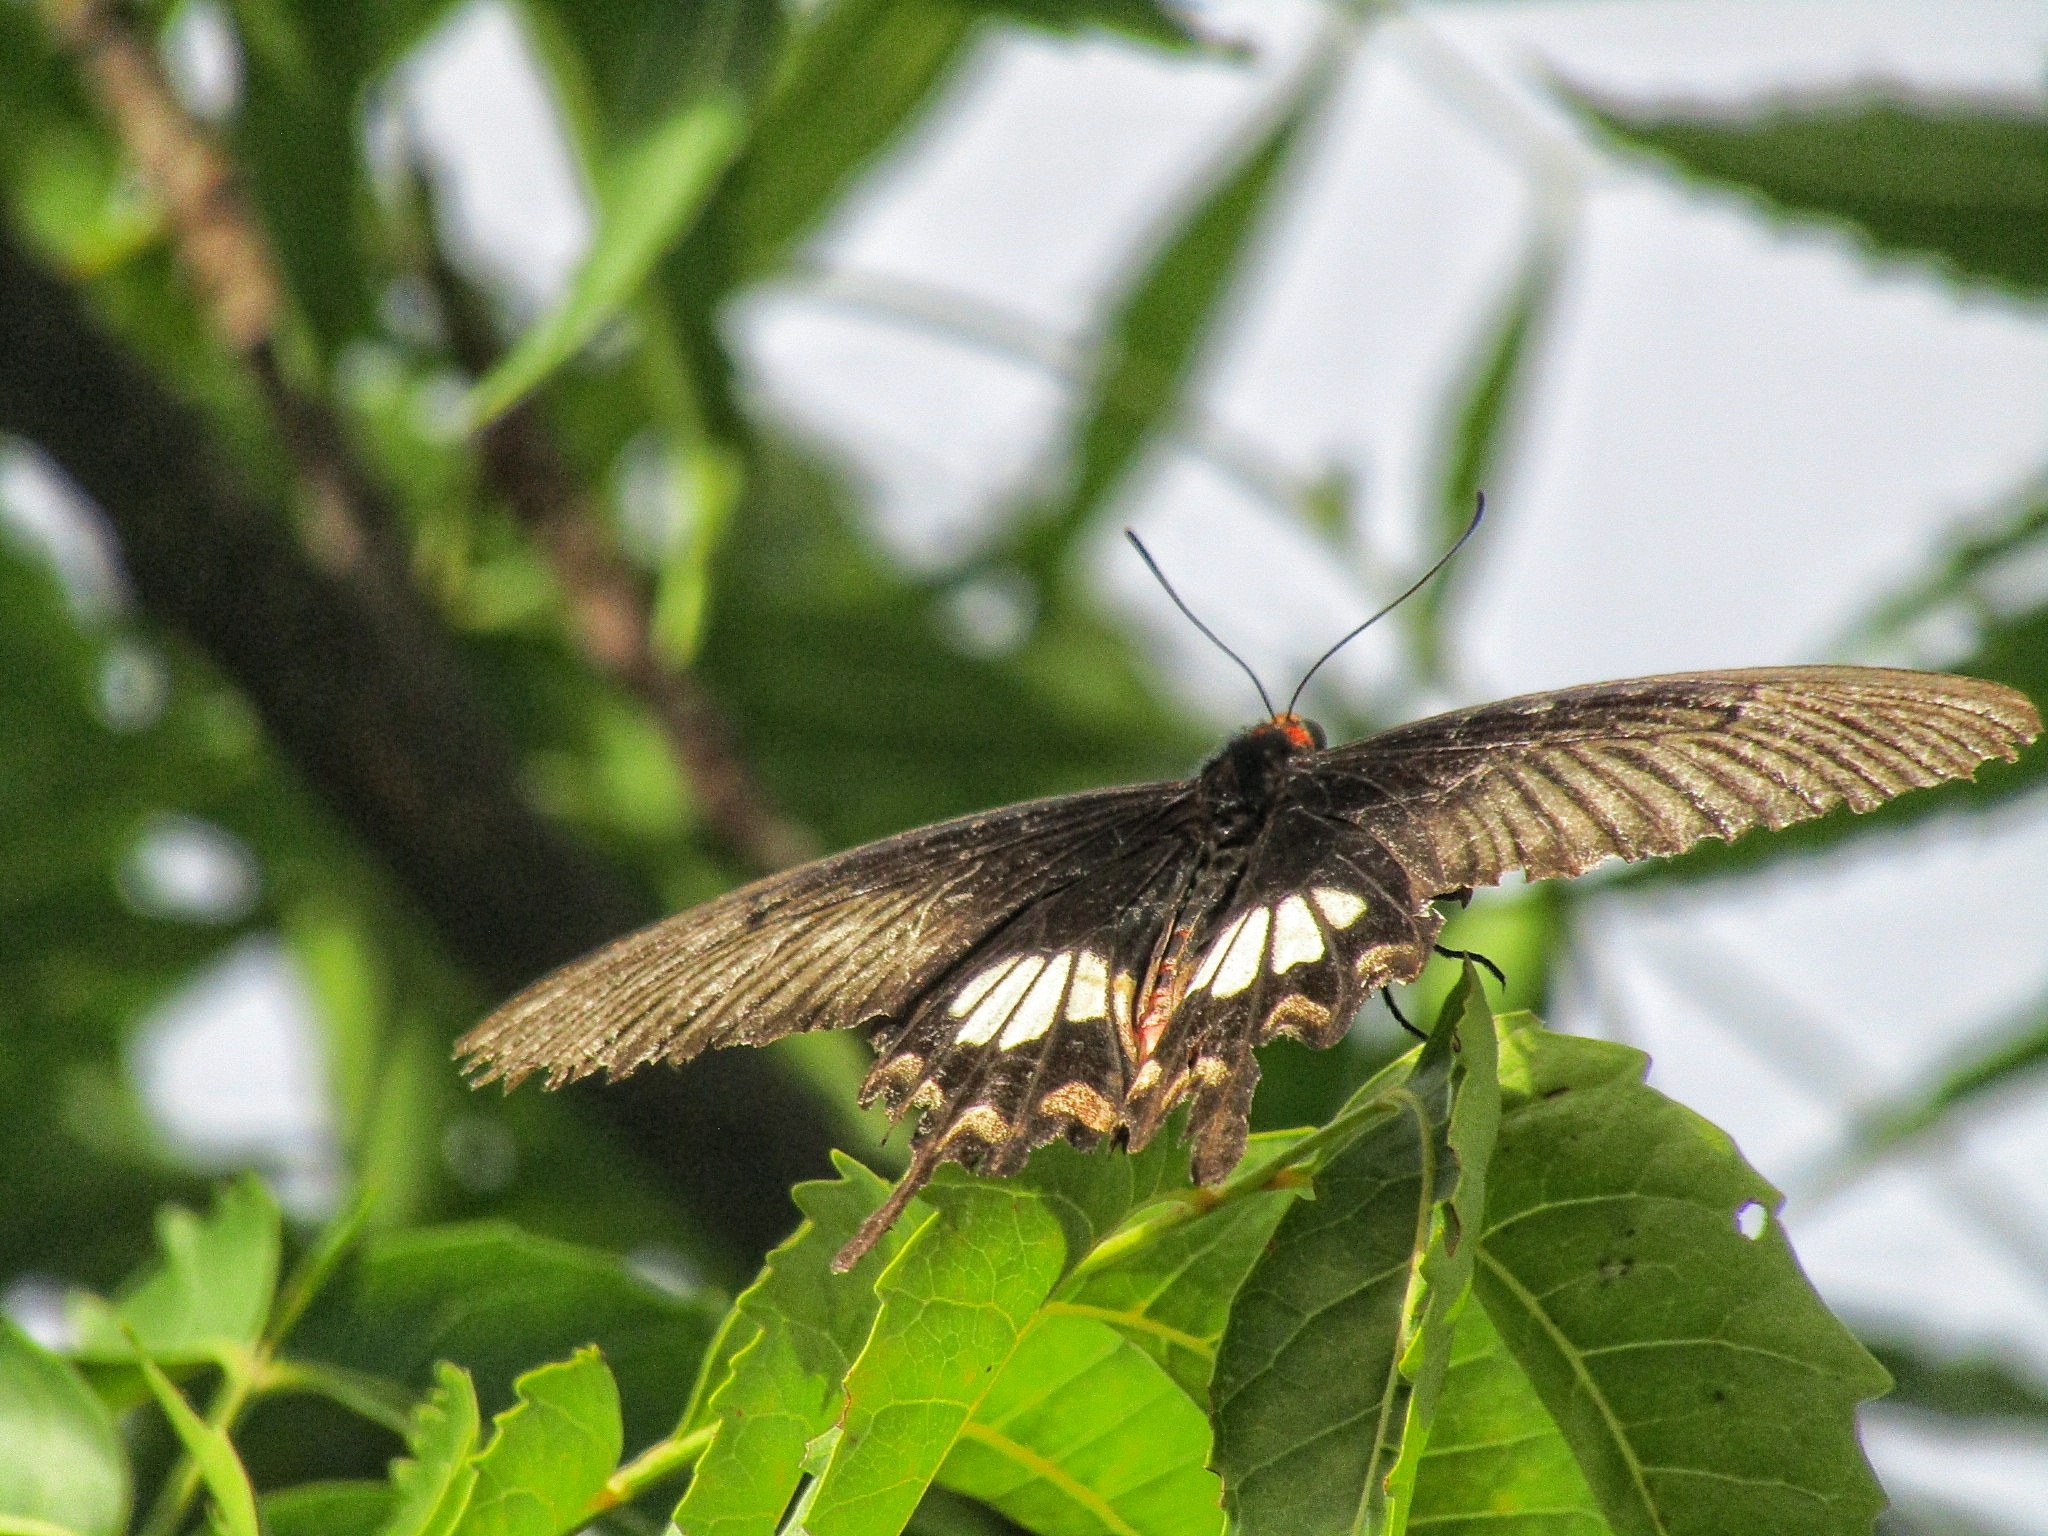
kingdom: Animalia
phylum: Arthropoda
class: Insecta
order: Lepidoptera
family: Papilionidae
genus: Pachliopta
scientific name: Pachliopta aristolochiae
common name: Common rose
